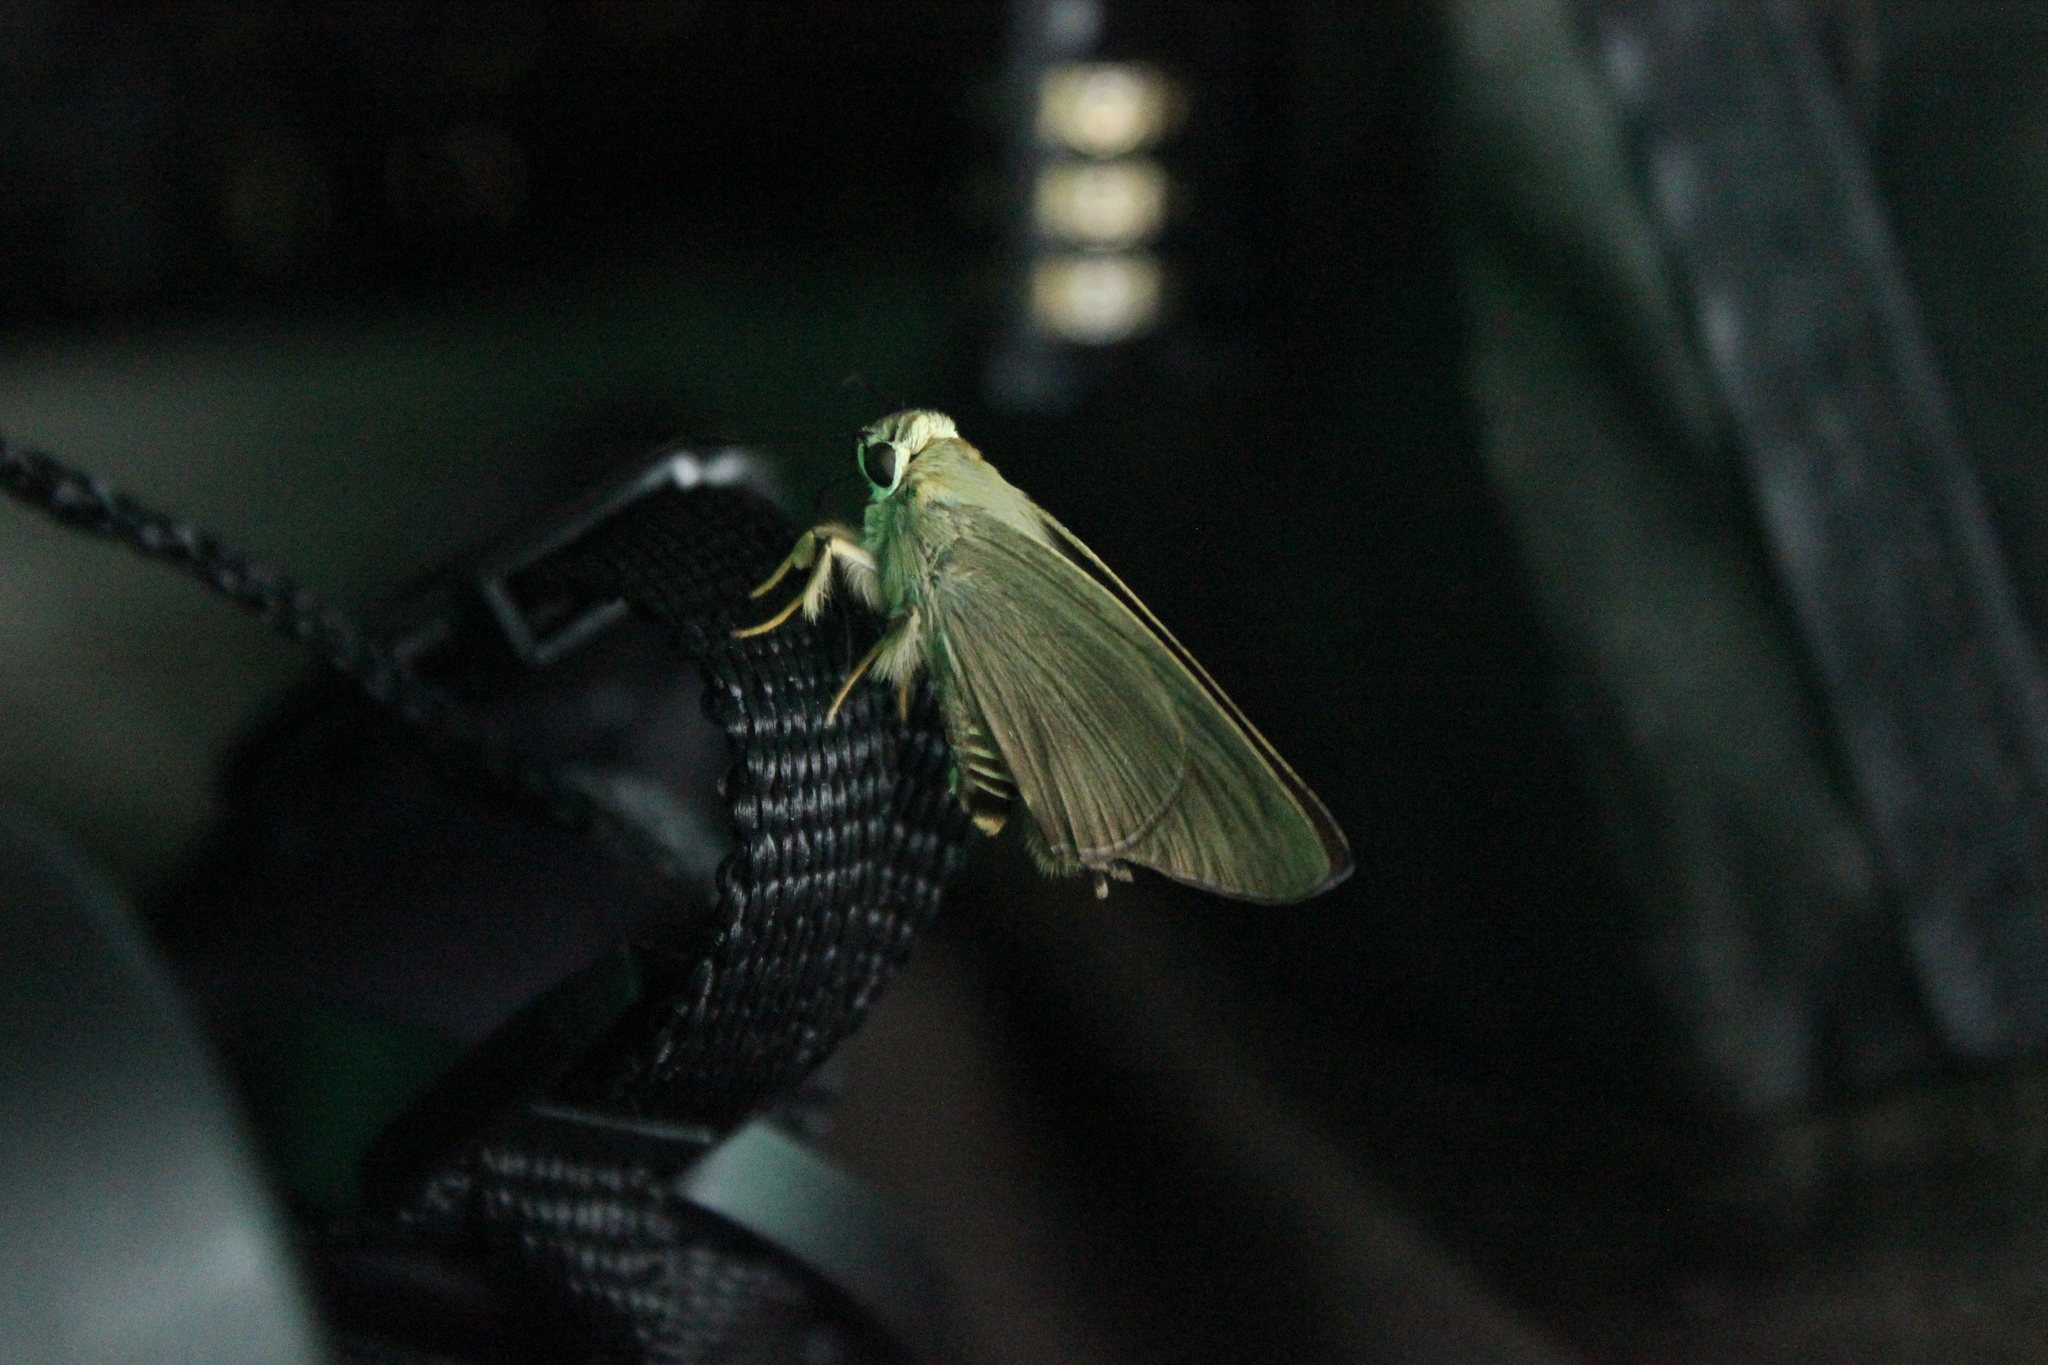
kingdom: Animalia
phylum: Arthropoda
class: Insecta
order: Lepidoptera
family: Hesperiidae
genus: Badamia
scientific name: Badamia exclamationis
